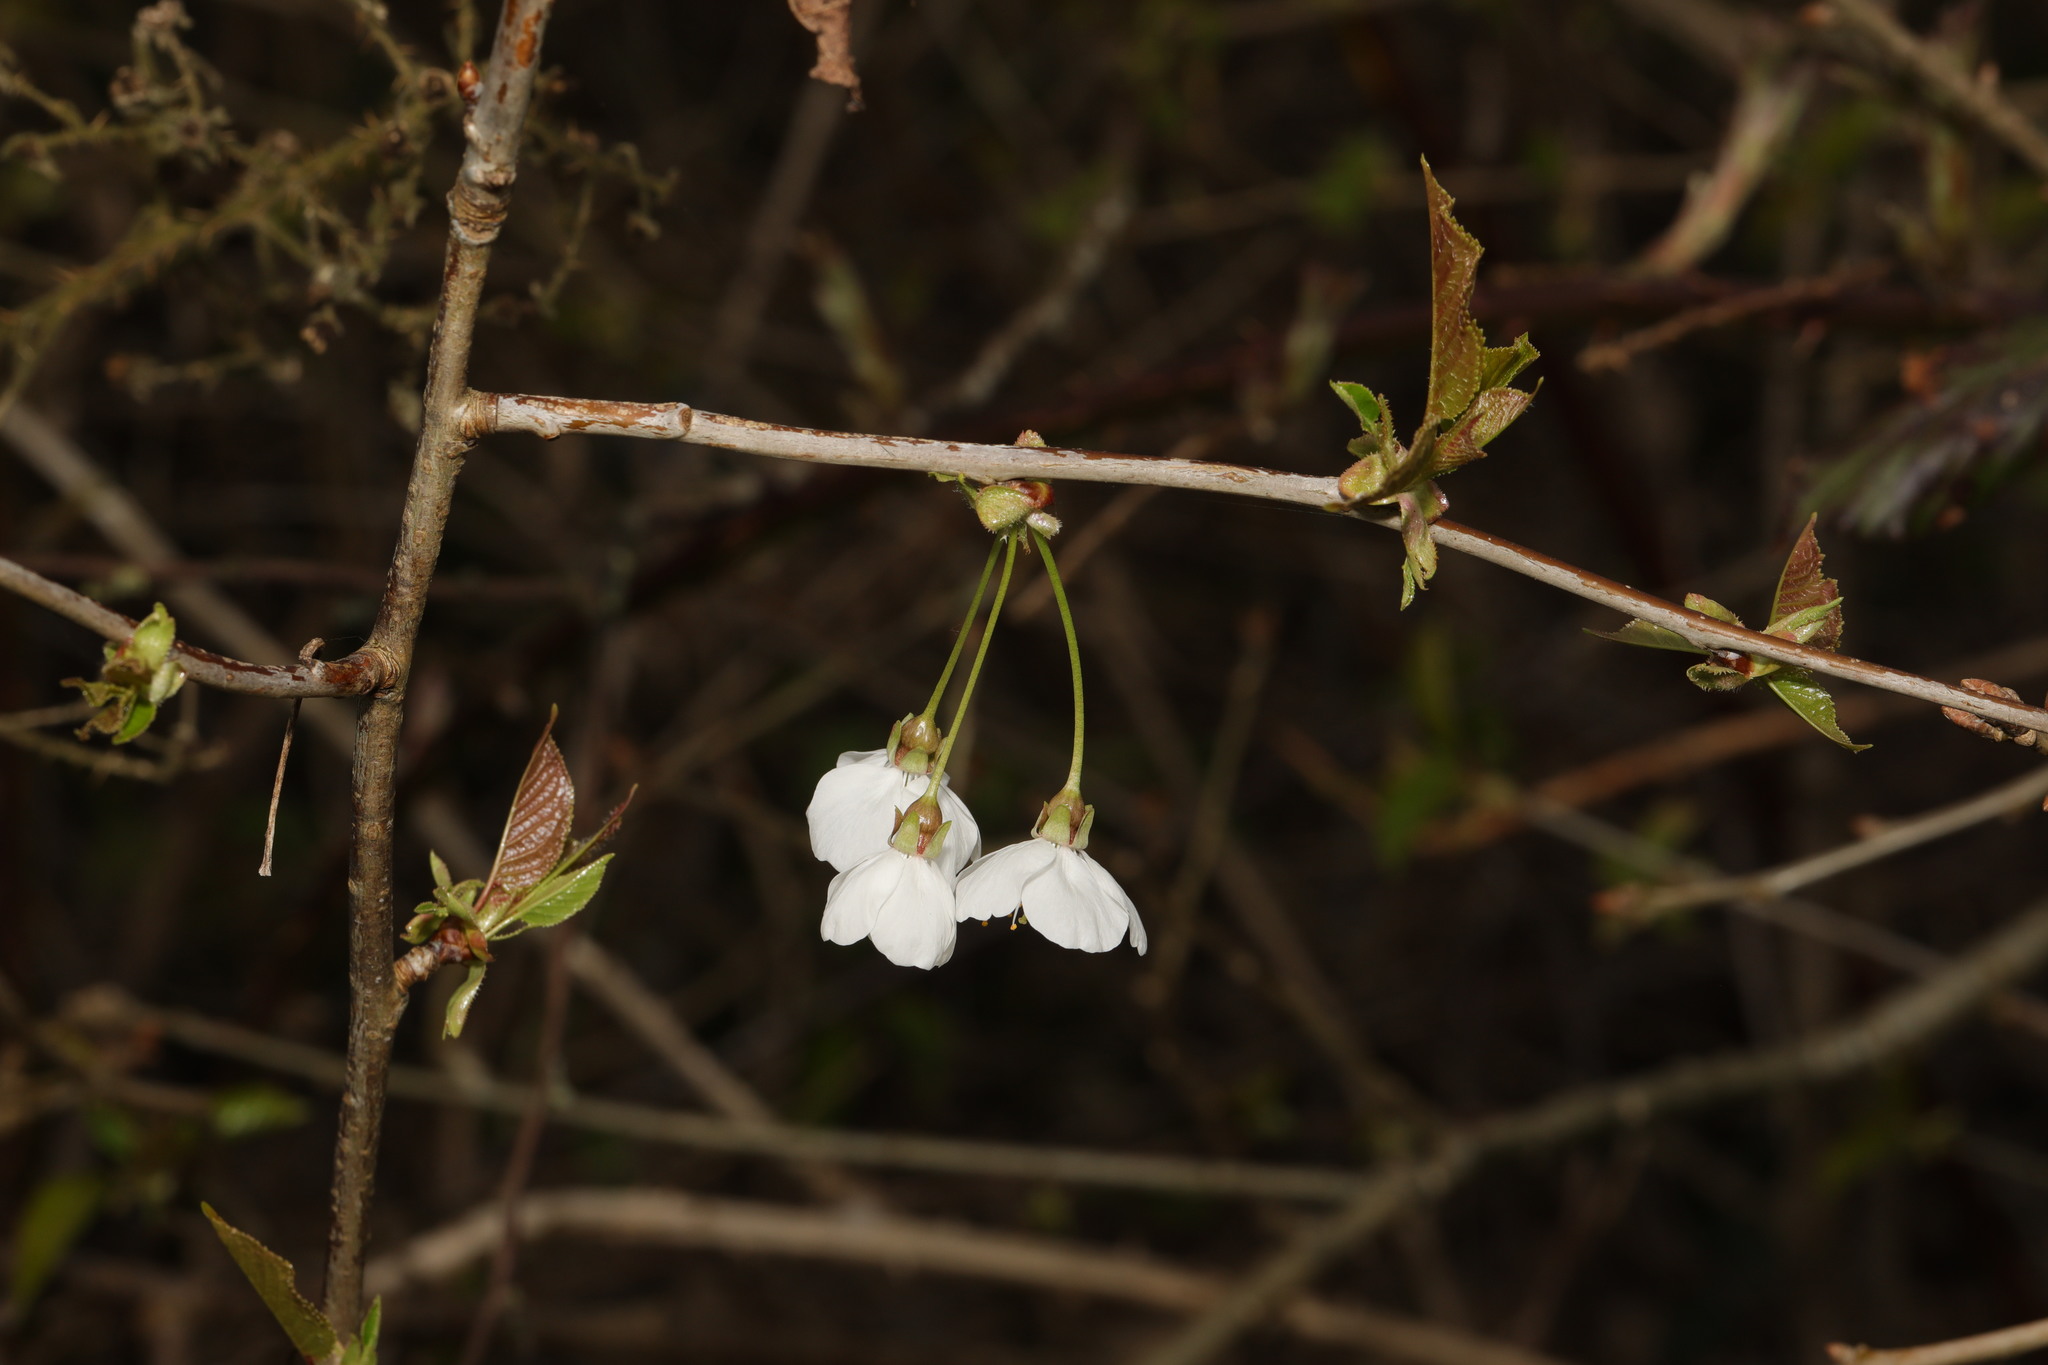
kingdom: Plantae
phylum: Tracheophyta
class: Magnoliopsida
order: Rosales
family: Rosaceae
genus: Prunus
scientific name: Prunus avium
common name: Sweet cherry
